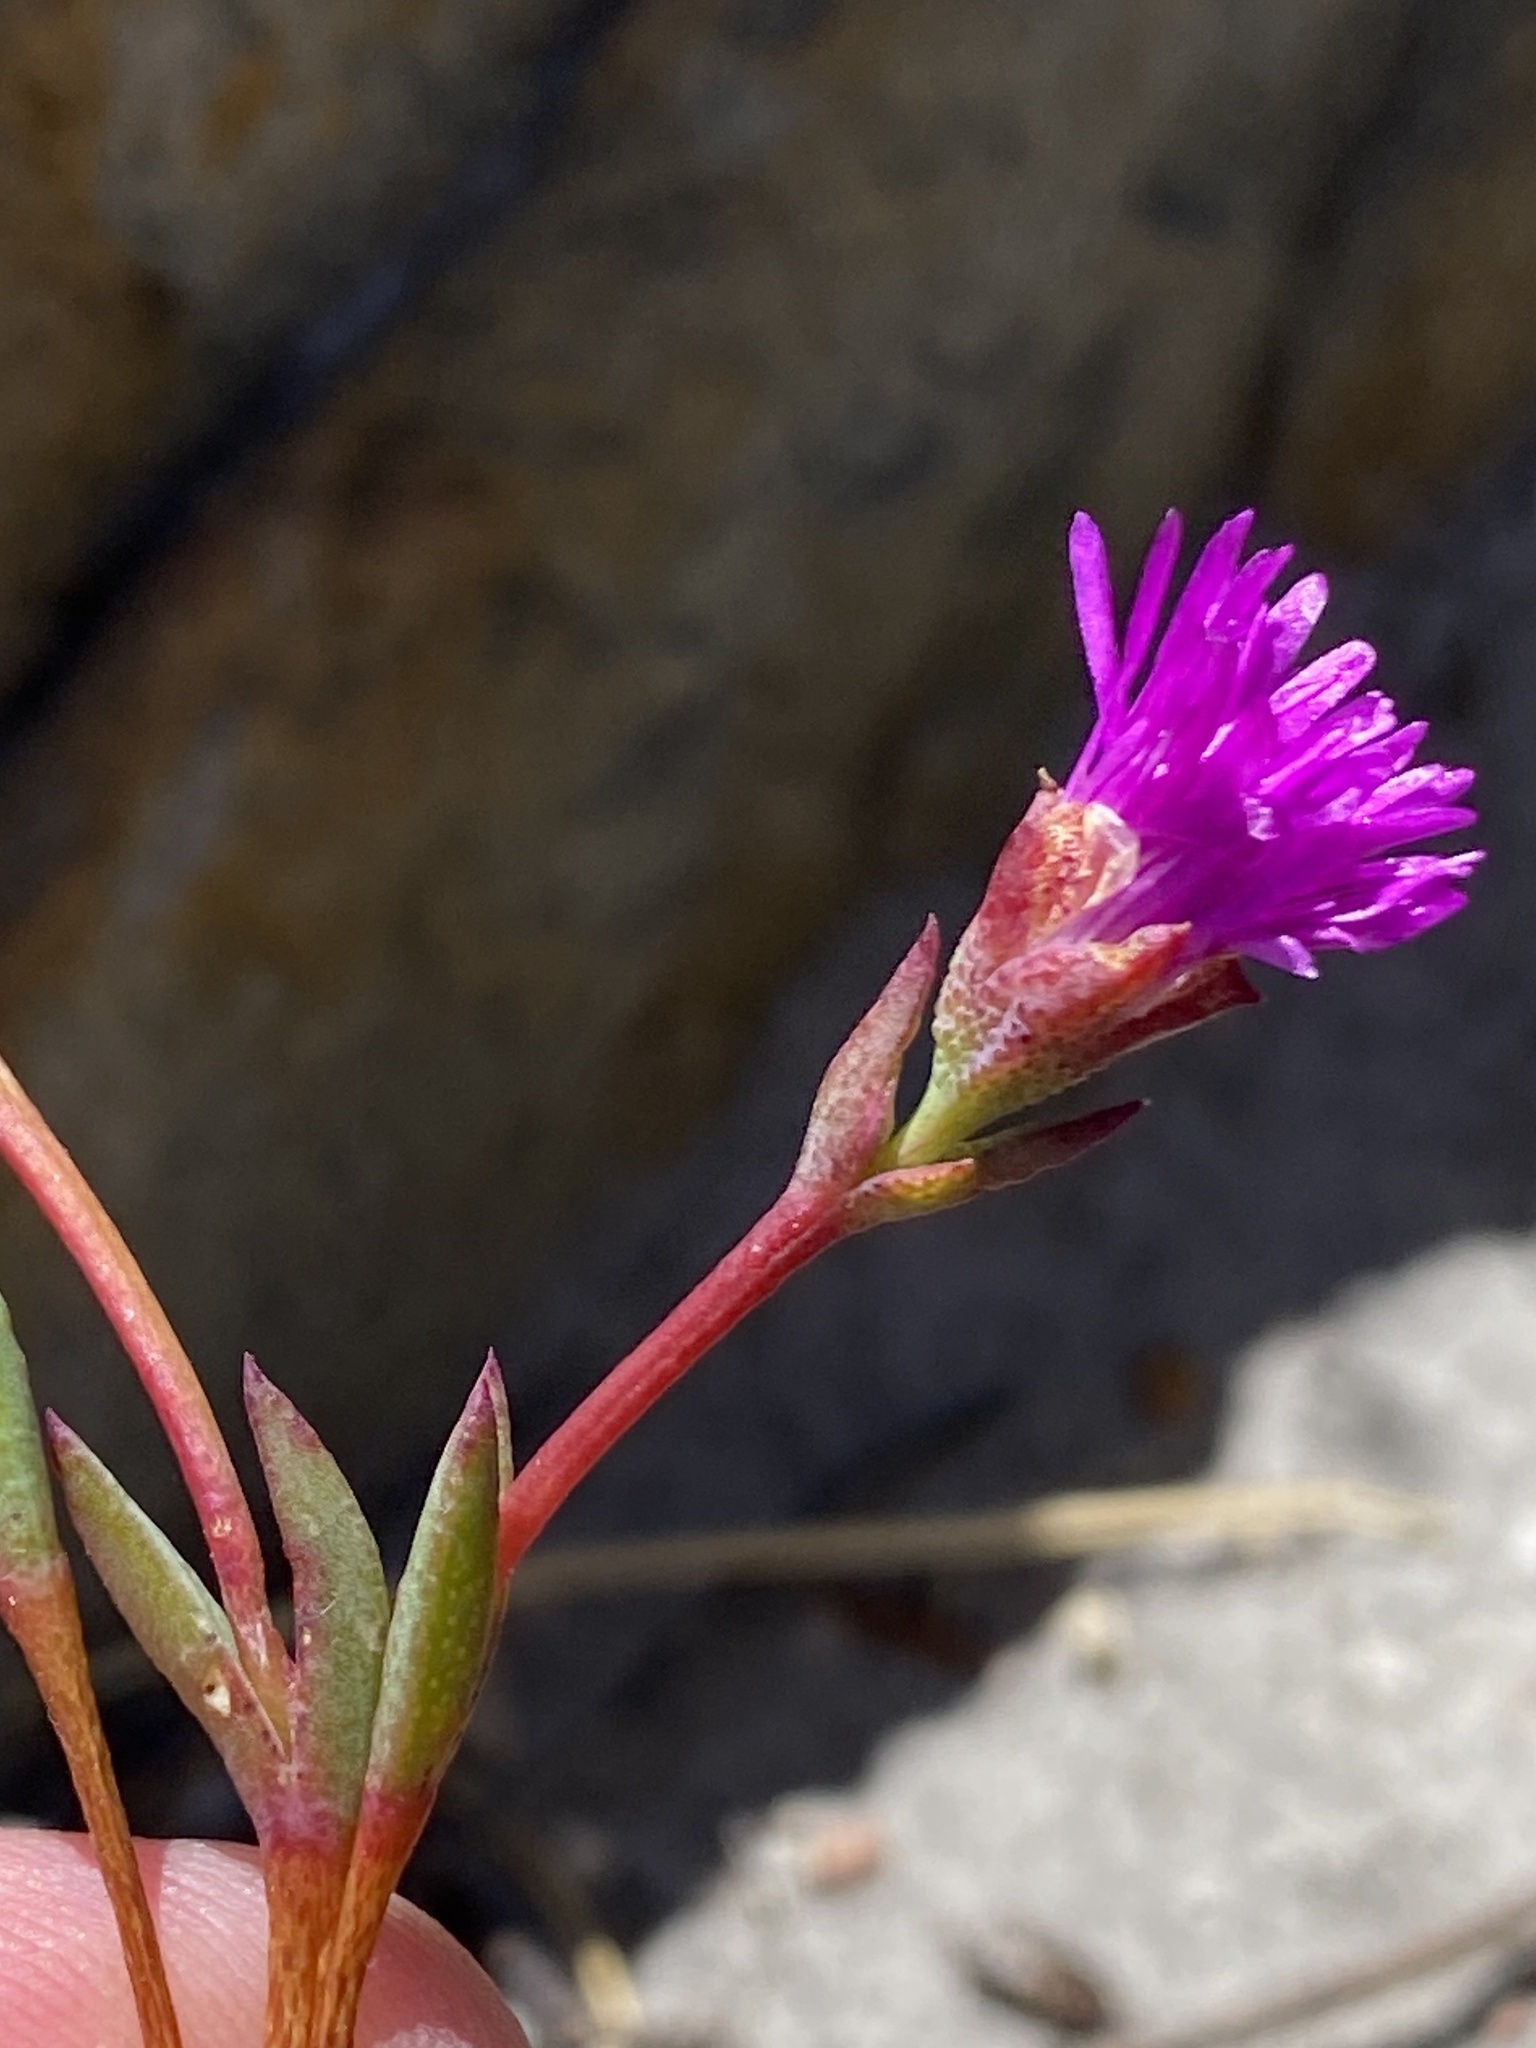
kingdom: Plantae
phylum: Tracheophyta
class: Magnoliopsida
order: Caryophyllales
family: Aizoaceae
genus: Erepsia
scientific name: Erepsia esterhuyseniae
